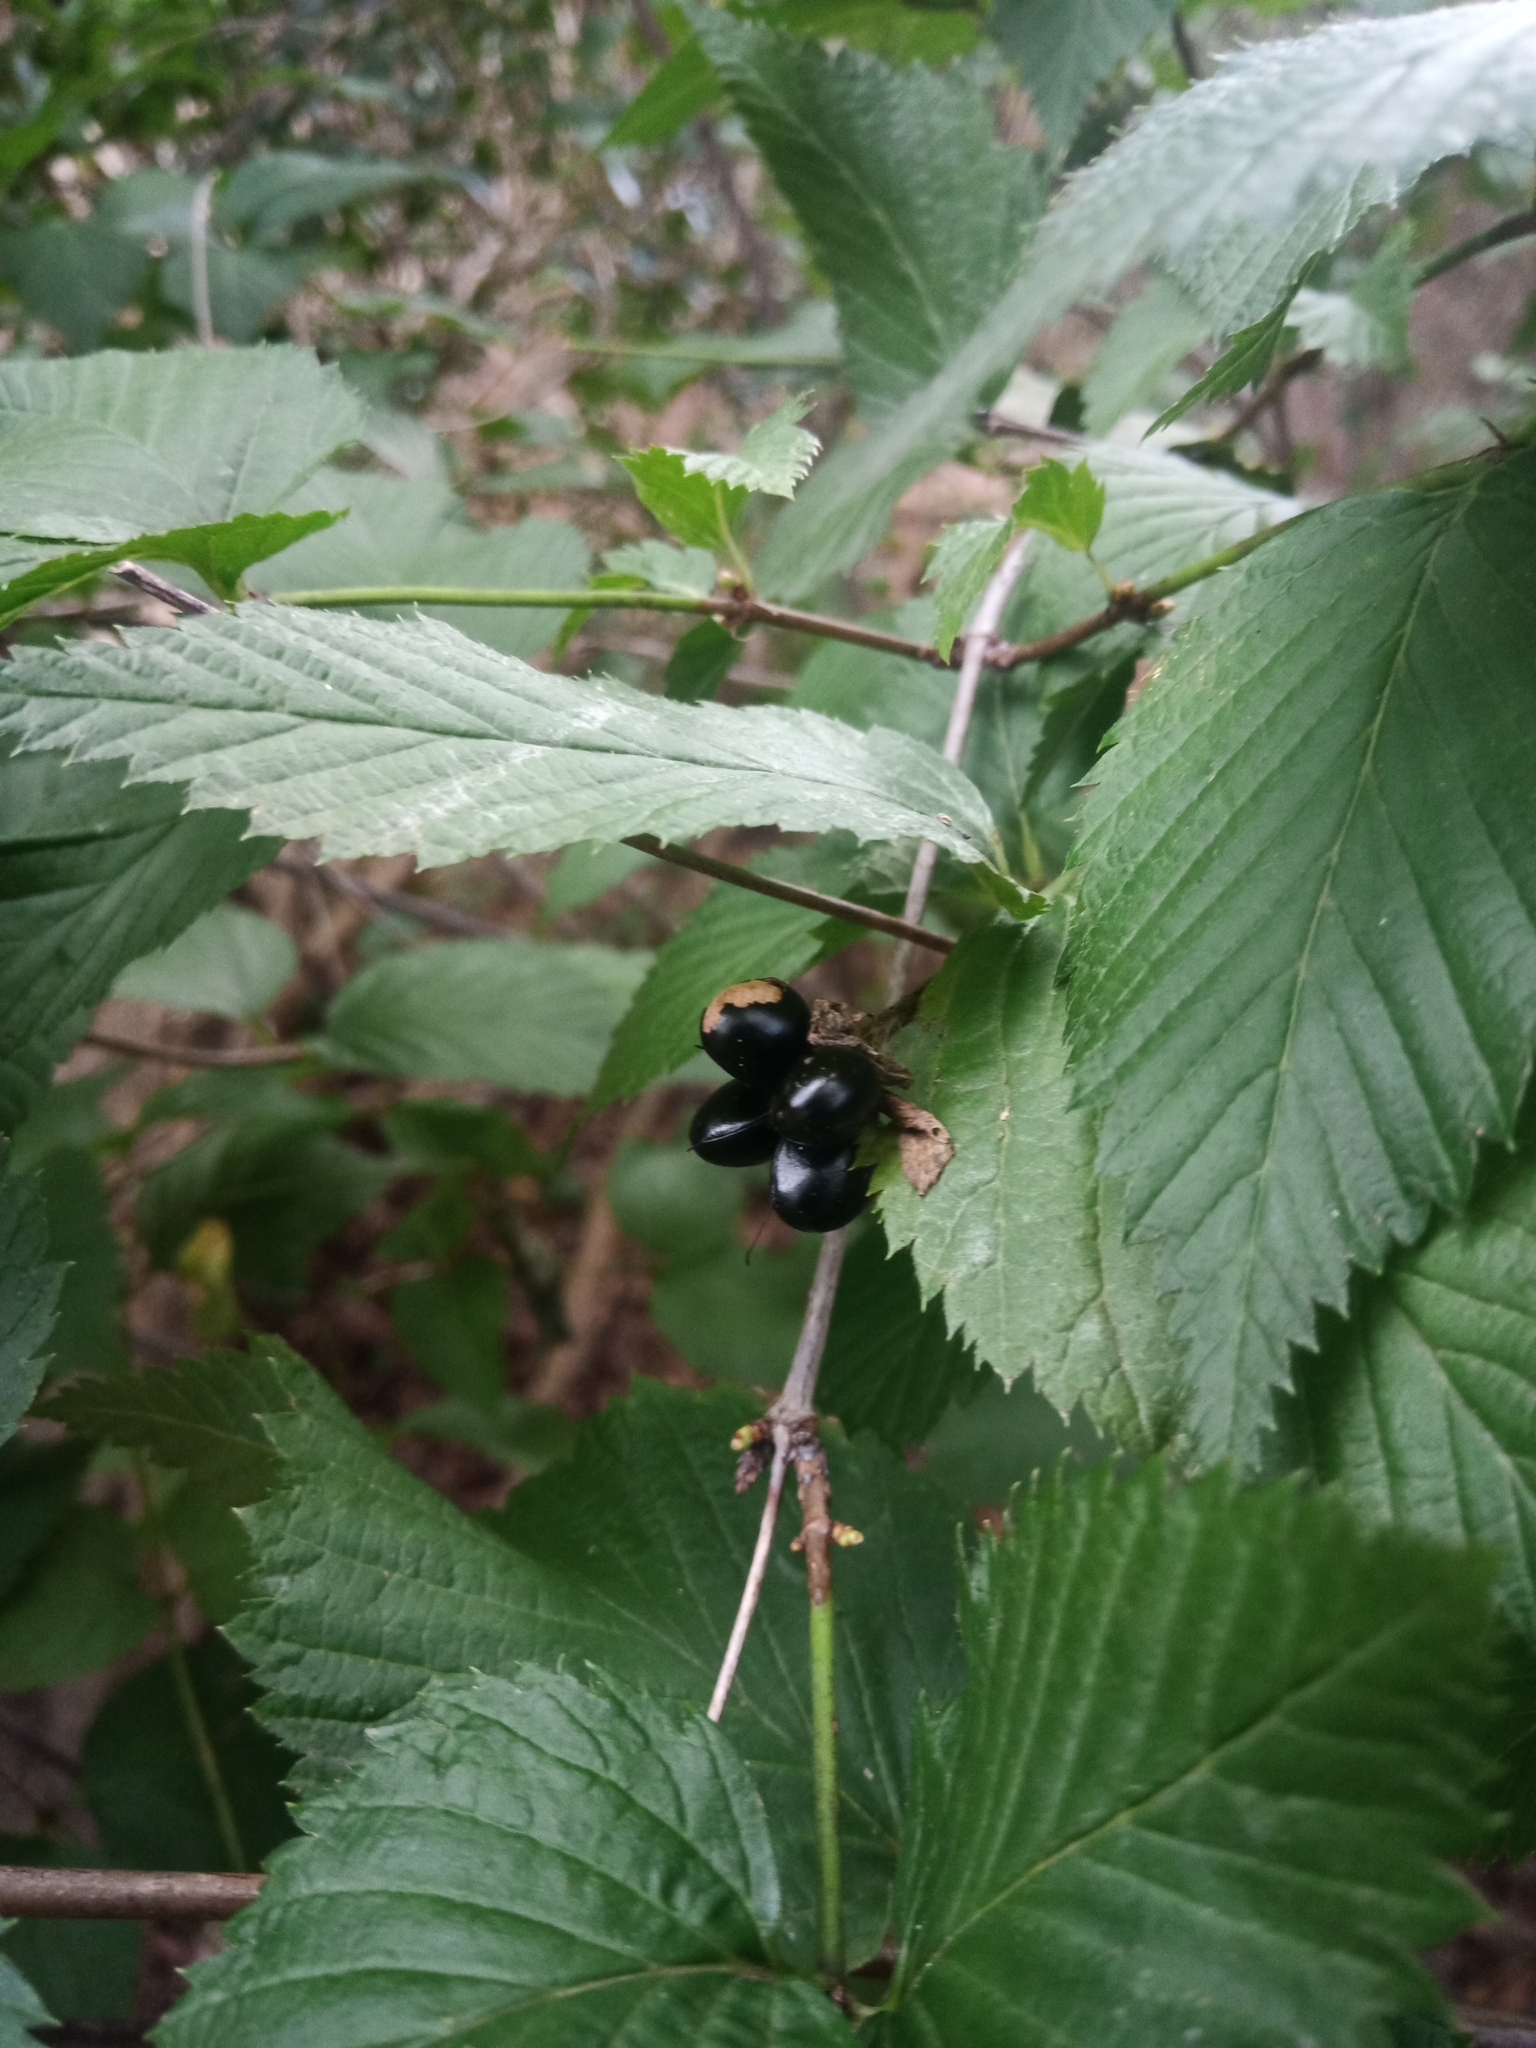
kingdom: Plantae
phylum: Tracheophyta
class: Magnoliopsida
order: Rosales
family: Rosaceae
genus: Rhodotypos
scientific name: Rhodotypos scandens
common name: Jetbead
